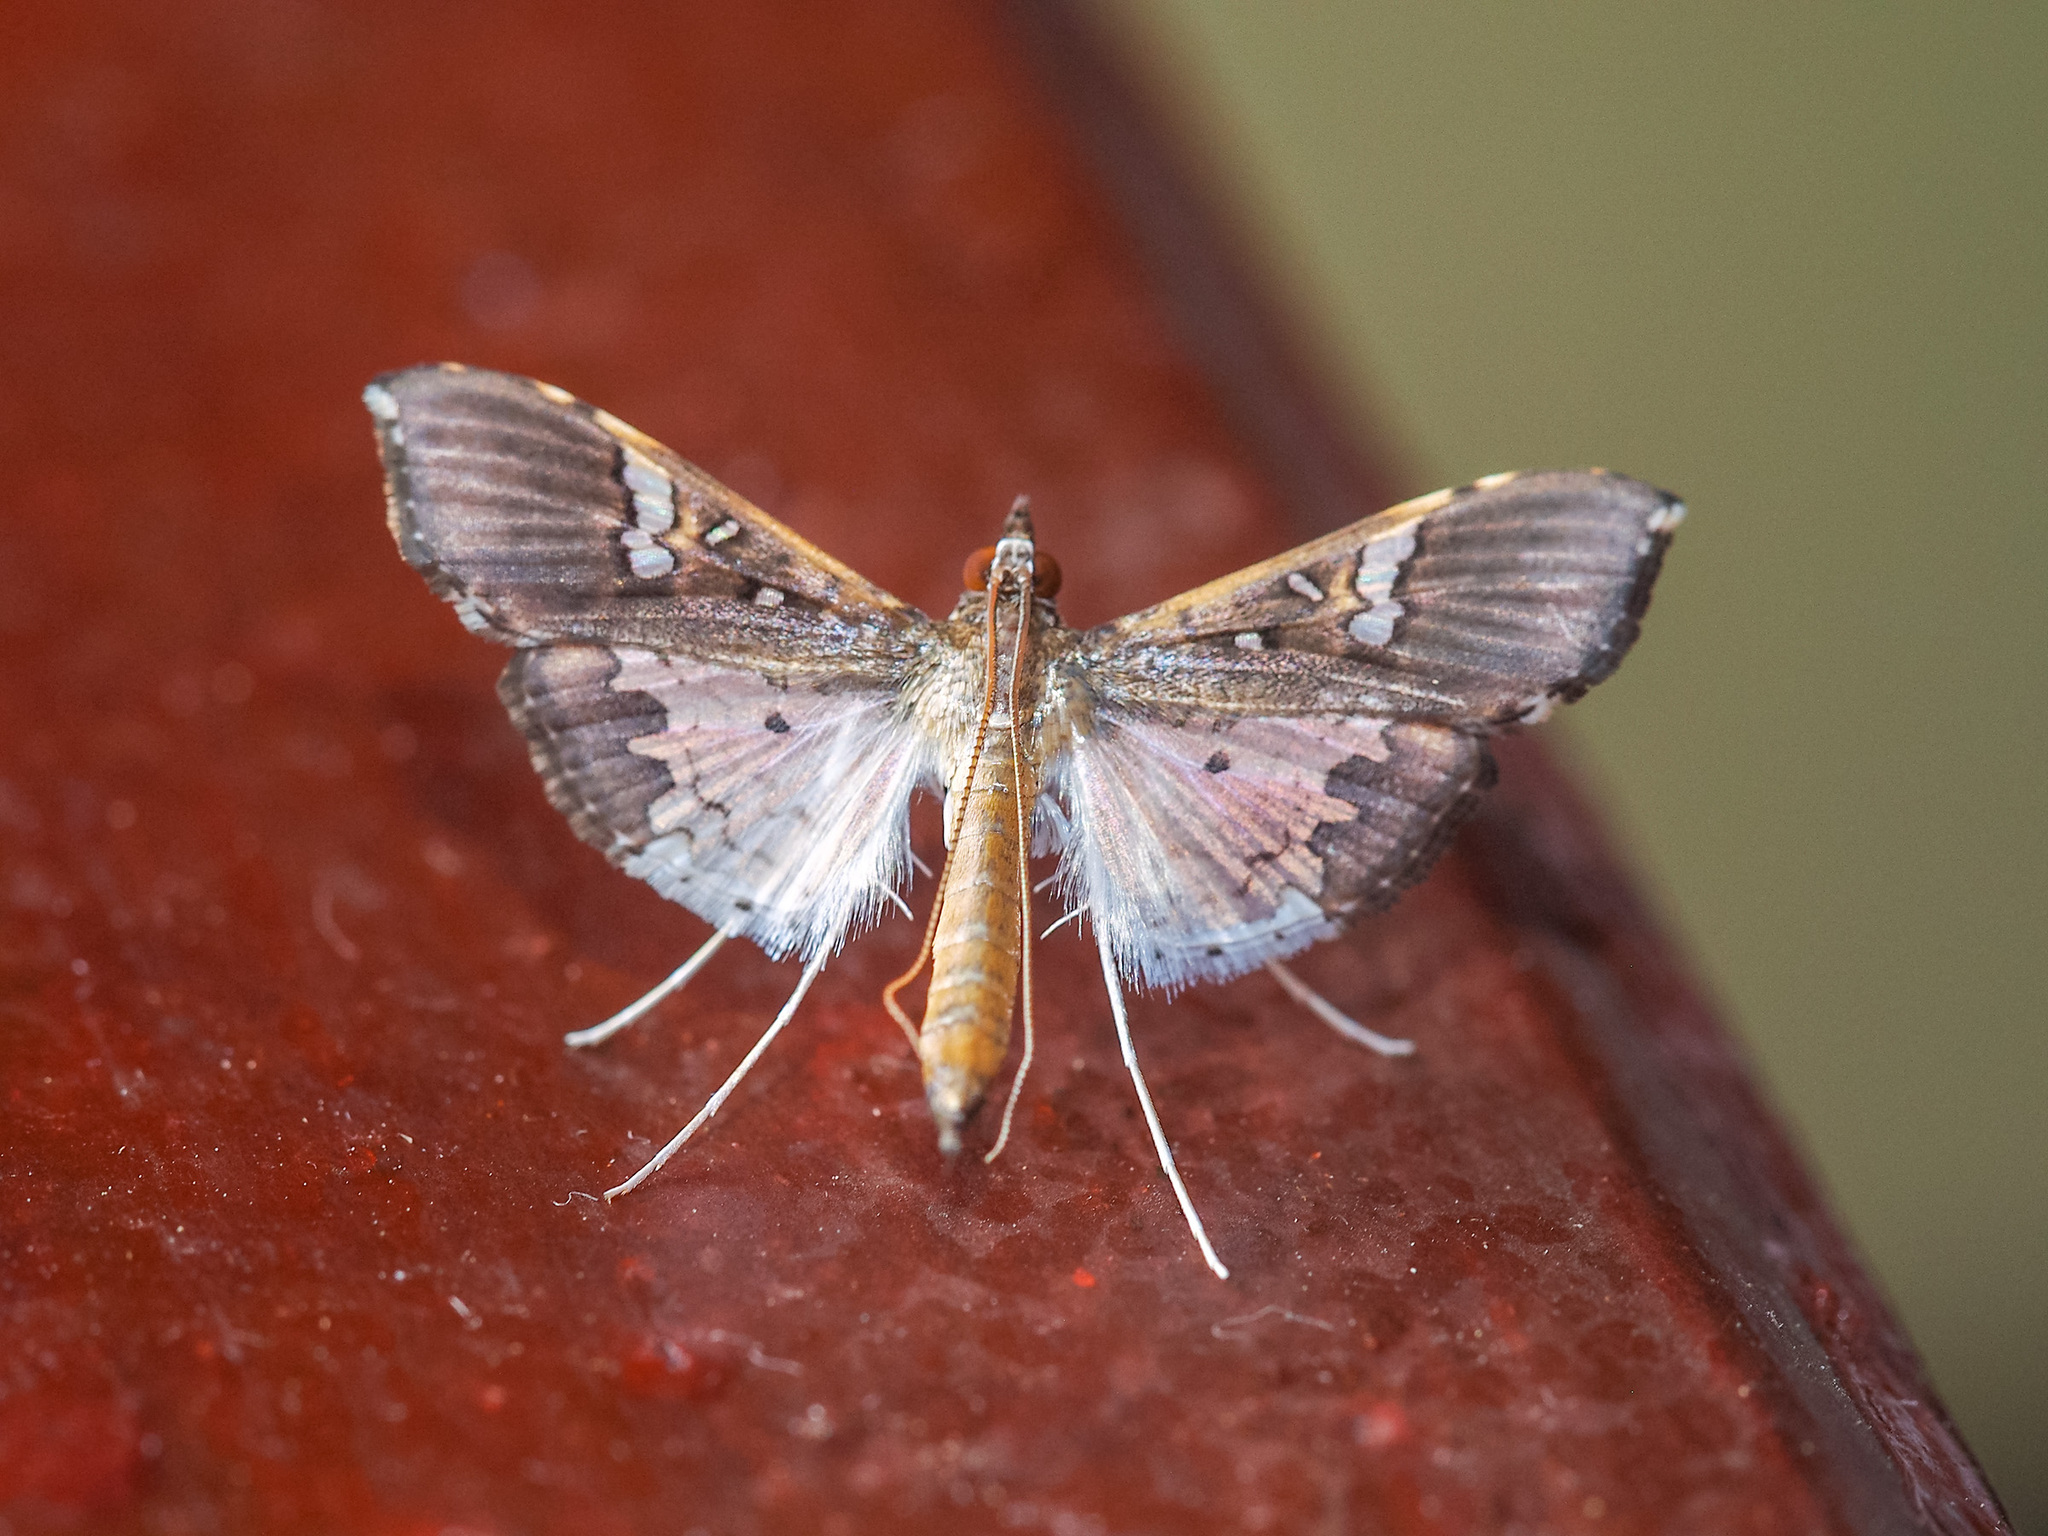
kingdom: Animalia
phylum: Arthropoda
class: Insecta
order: Lepidoptera
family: Crambidae
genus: Maruca
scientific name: Maruca vitrata
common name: Maruca pod borer
